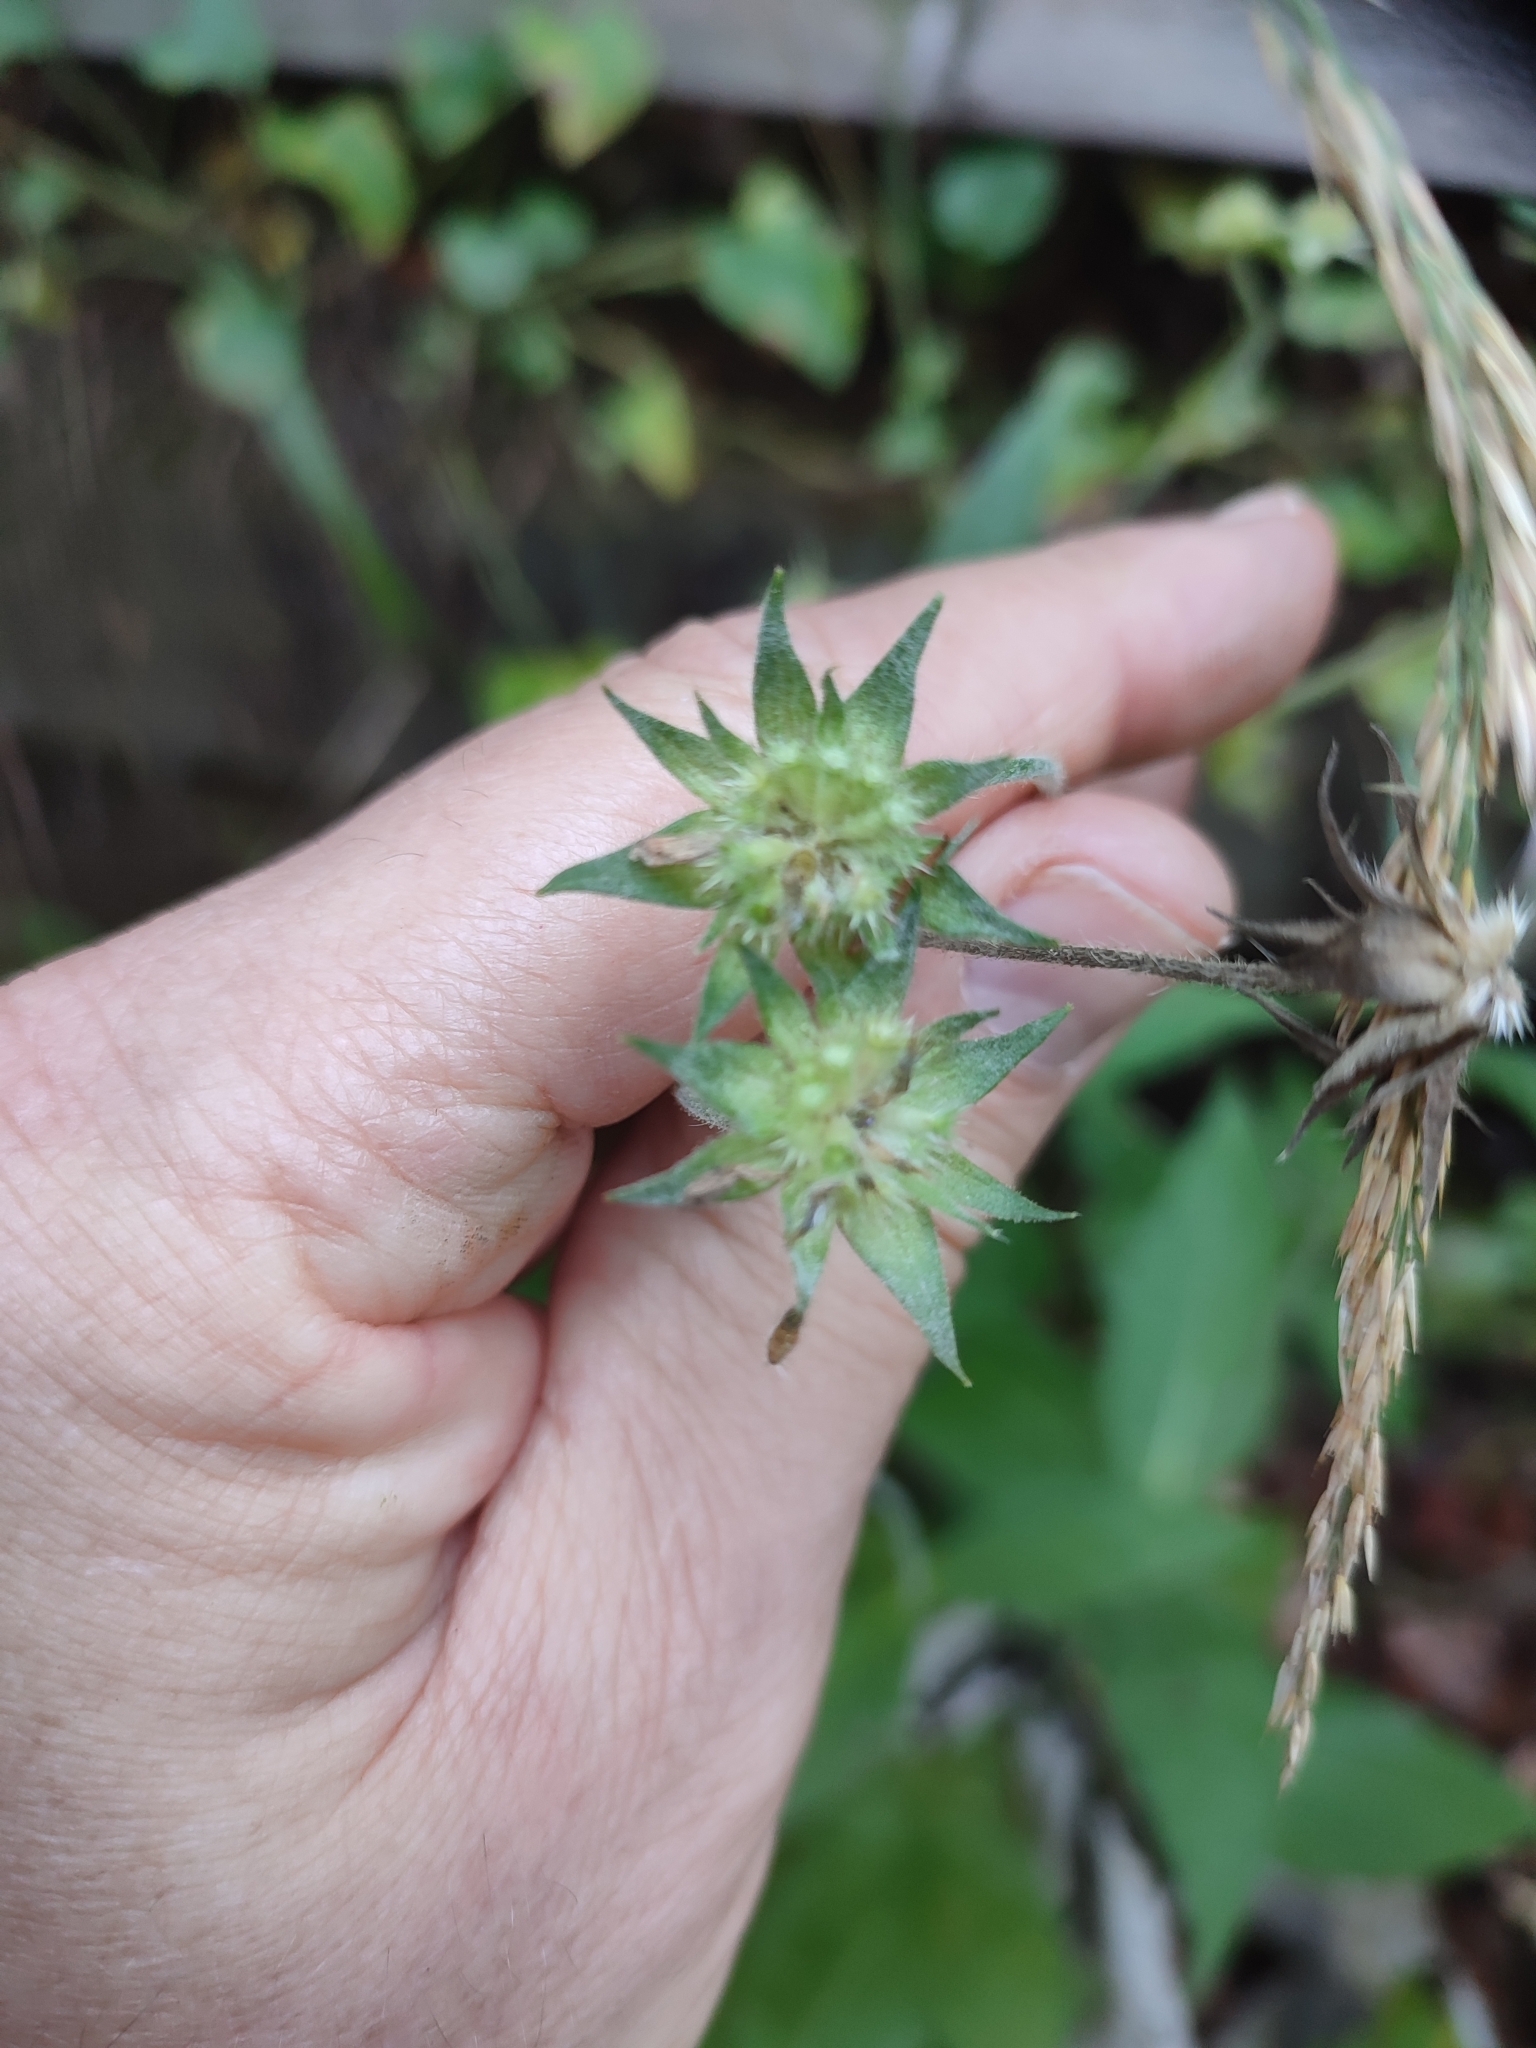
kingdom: Plantae
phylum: Tracheophyta
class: Magnoliopsida
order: Dipsacales
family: Caprifoliaceae
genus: Knautia
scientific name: Knautia dipsacifolia
